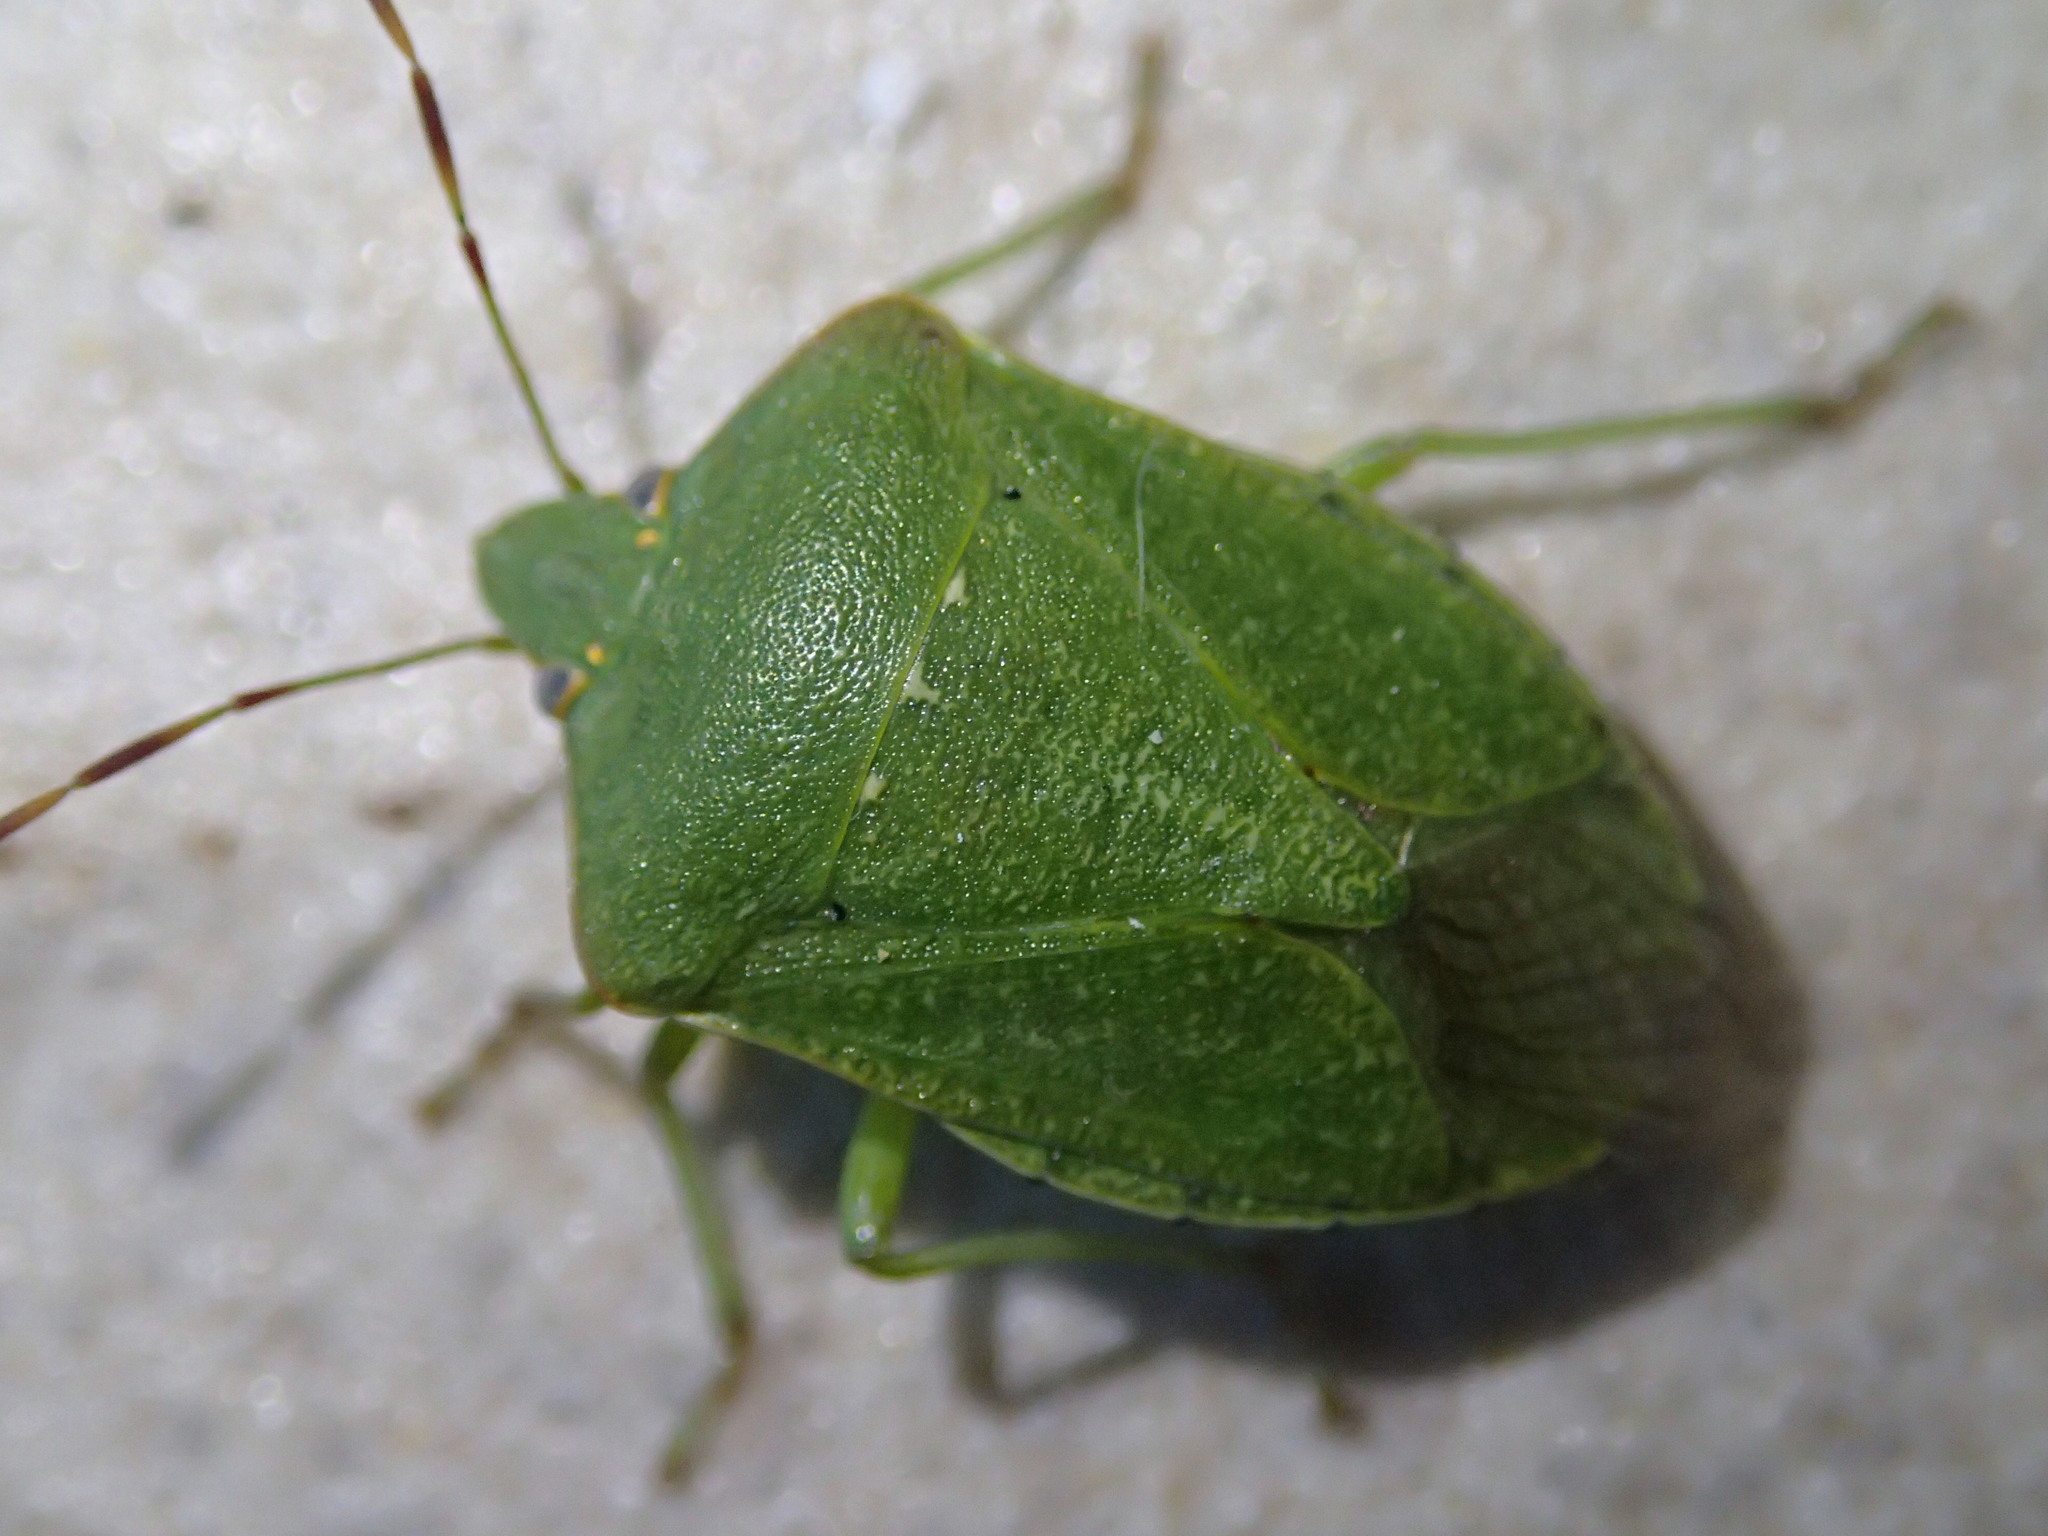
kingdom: Animalia
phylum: Arthropoda
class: Insecta
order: Hemiptera
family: Pentatomidae
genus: Nezara
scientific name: Nezara viridula
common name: Southern green stink bug
